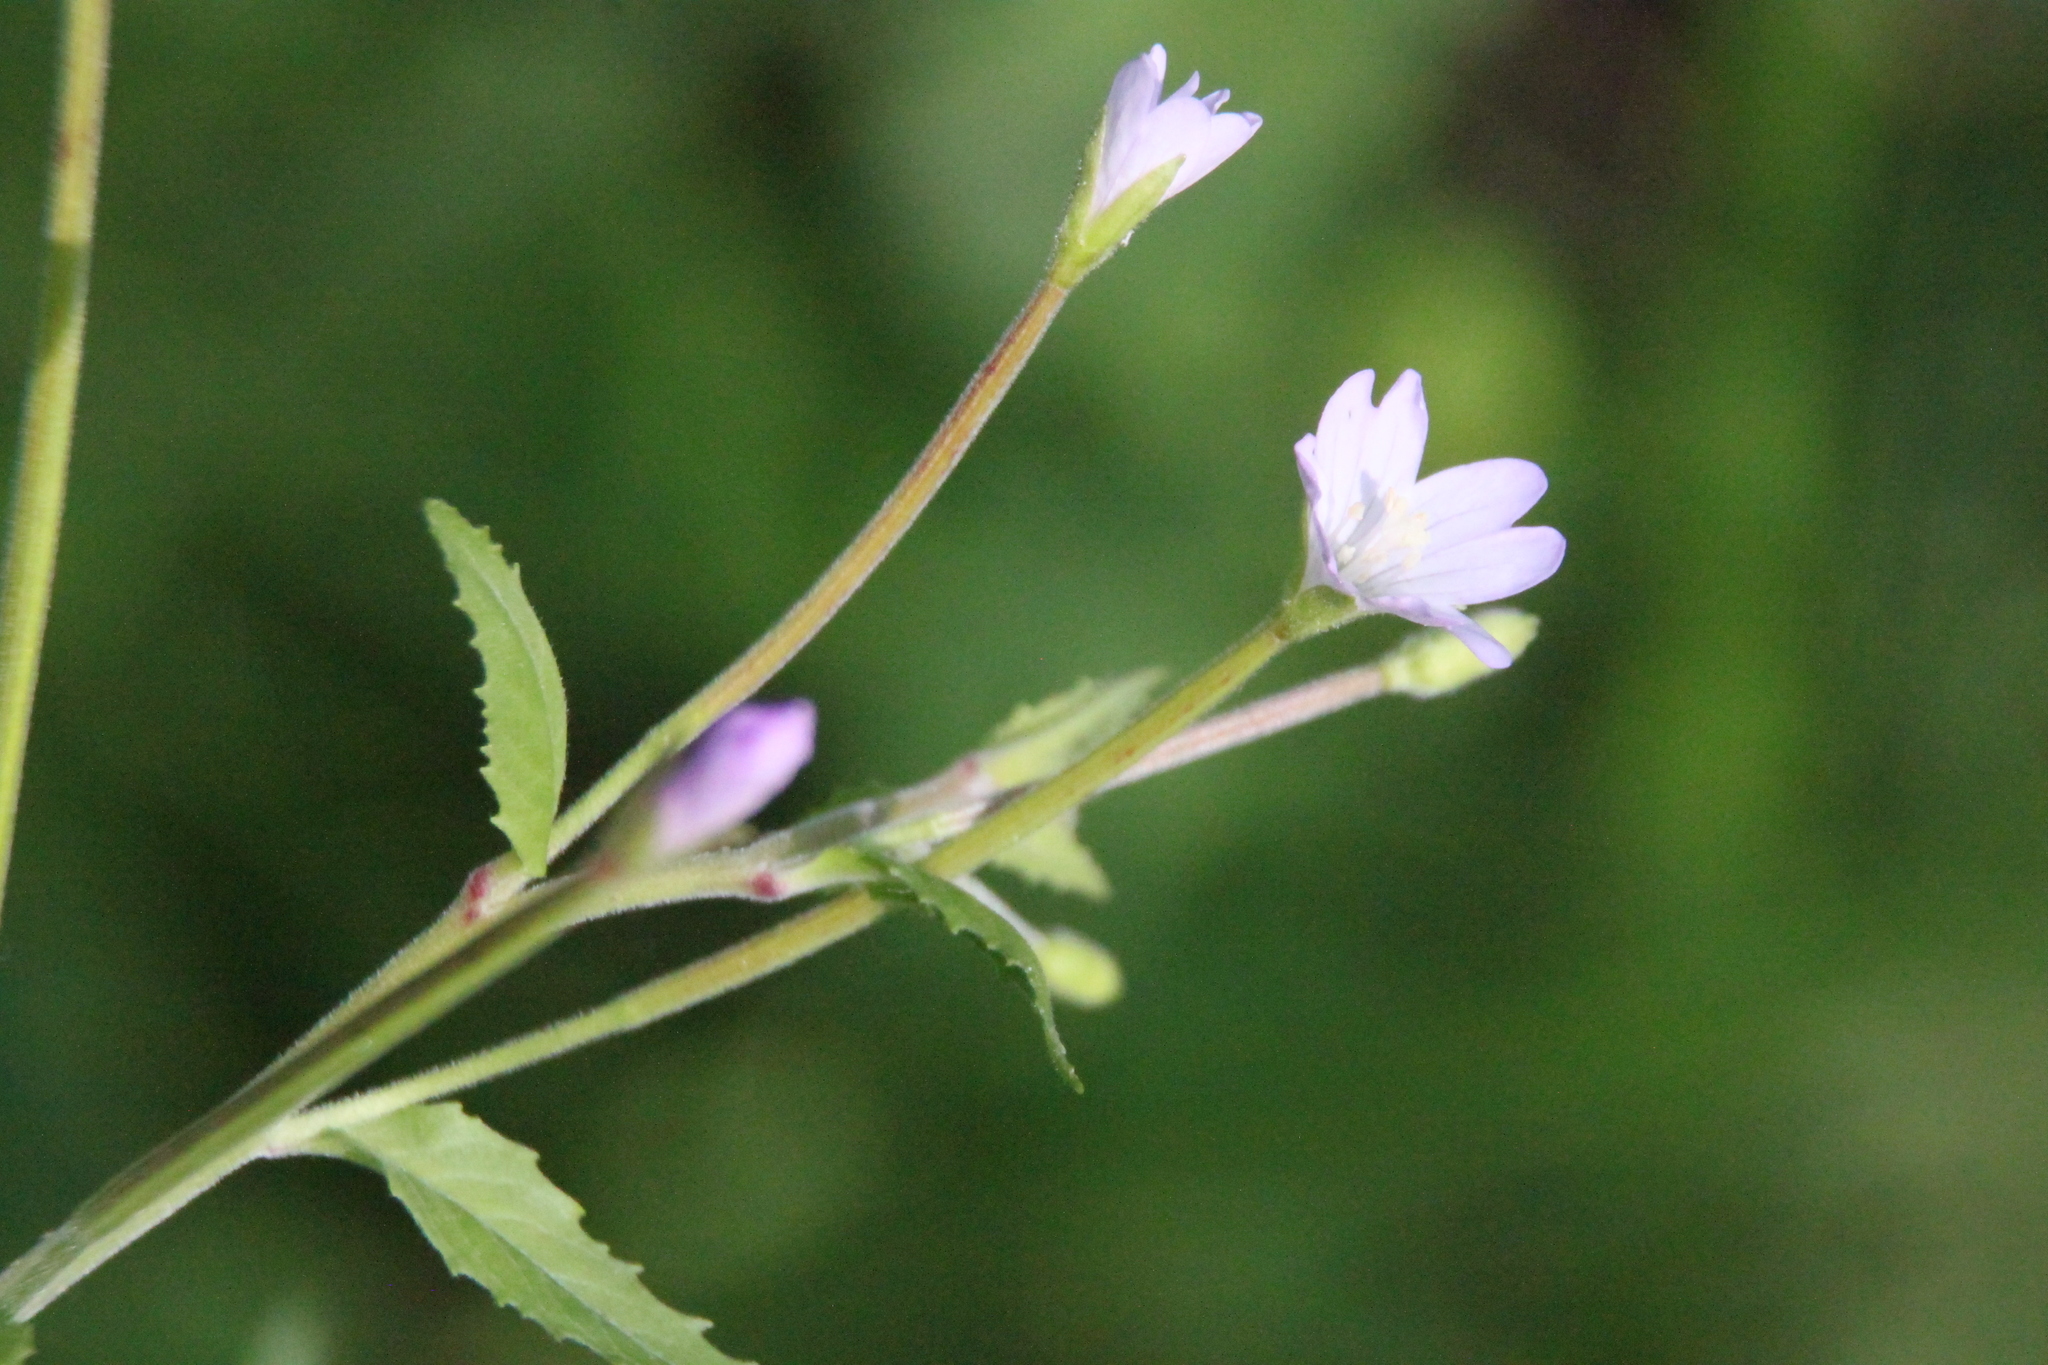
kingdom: Plantae
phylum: Tracheophyta
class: Magnoliopsida
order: Myrtales
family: Onagraceae
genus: Epilobium
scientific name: Epilobium montanum
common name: Broad-leaved willowherb
